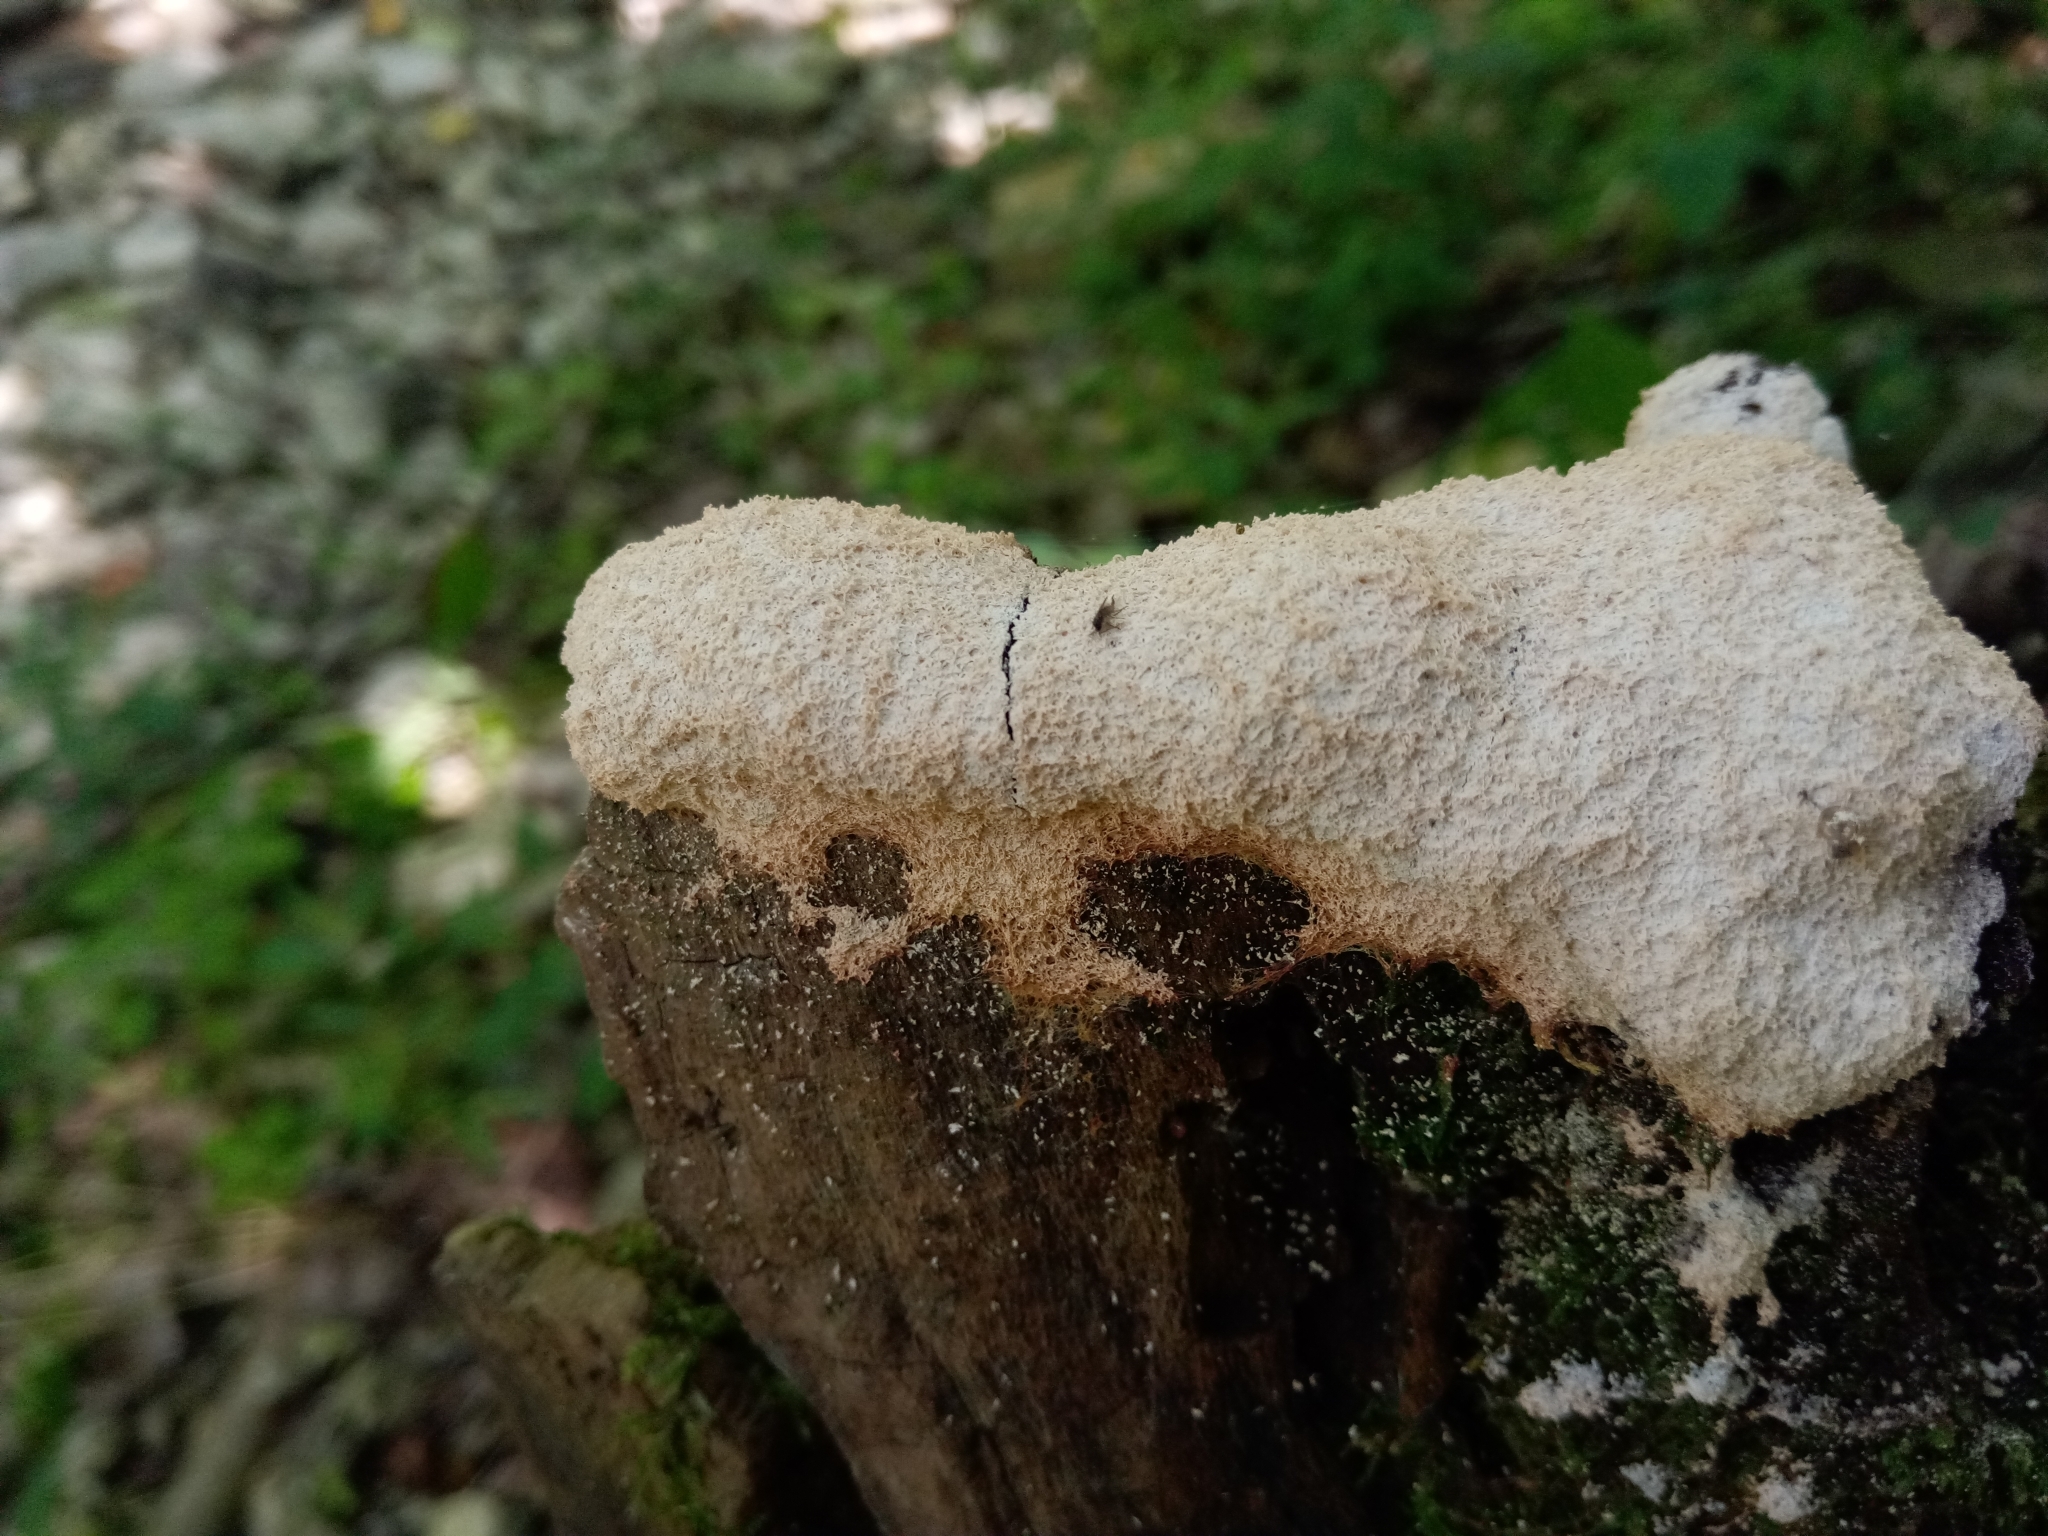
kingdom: Protozoa
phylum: Mycetozoa
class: Myxomycetes
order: Physarales
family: Physaraceae
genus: Fuligo
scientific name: Fuligo septica
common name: Dog vomit slime mold
